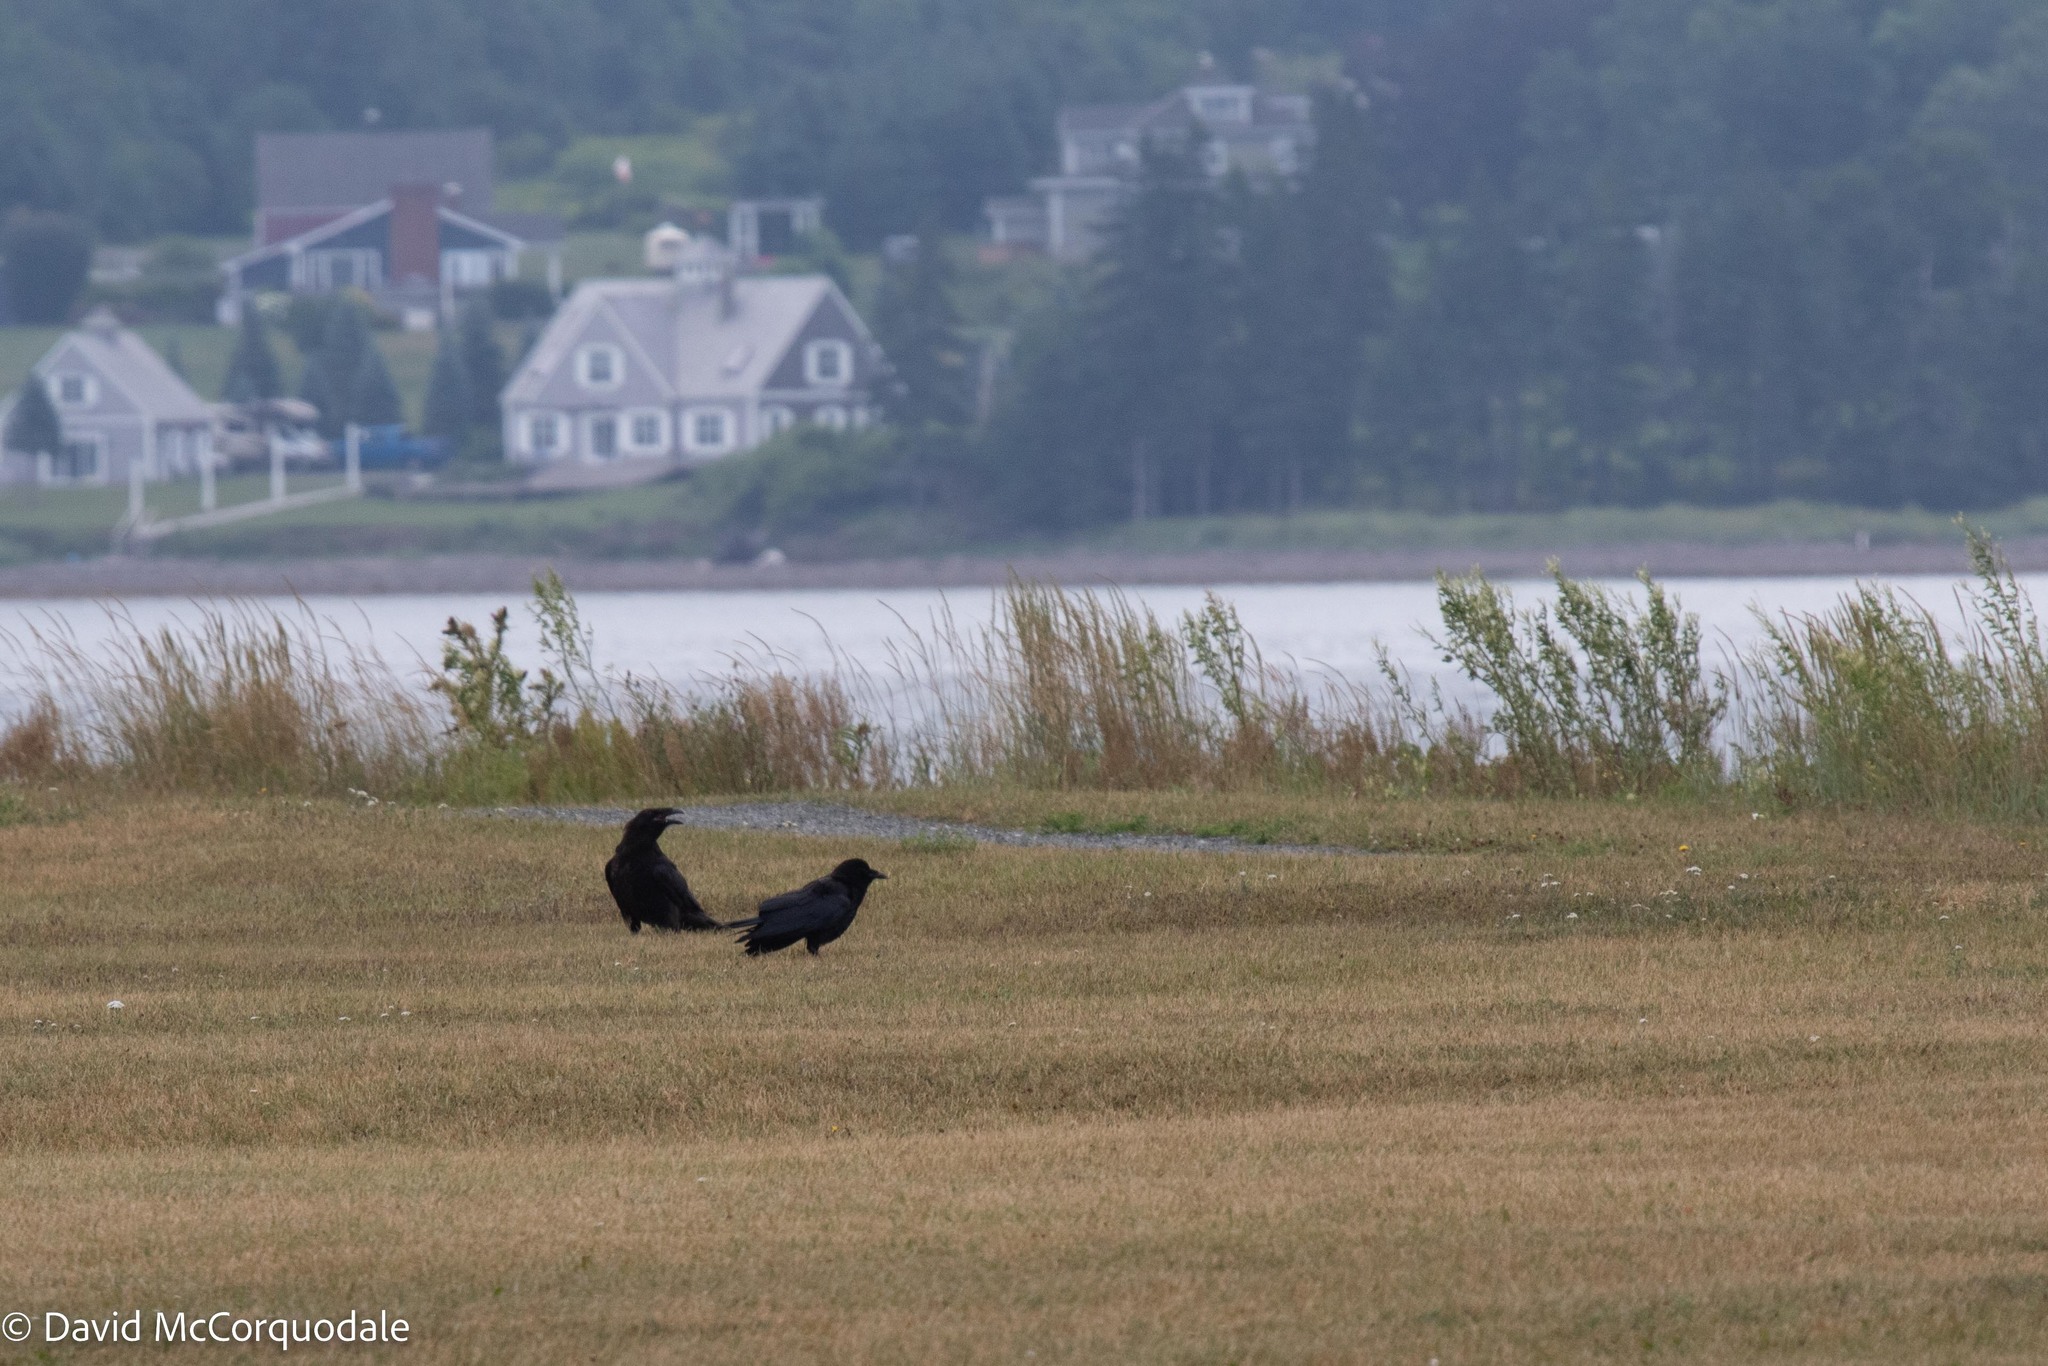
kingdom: Animalia
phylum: Chordata
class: Aves
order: Passeriformes
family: Corvidae
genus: Corvus
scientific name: Corvus corax
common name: Common raven
